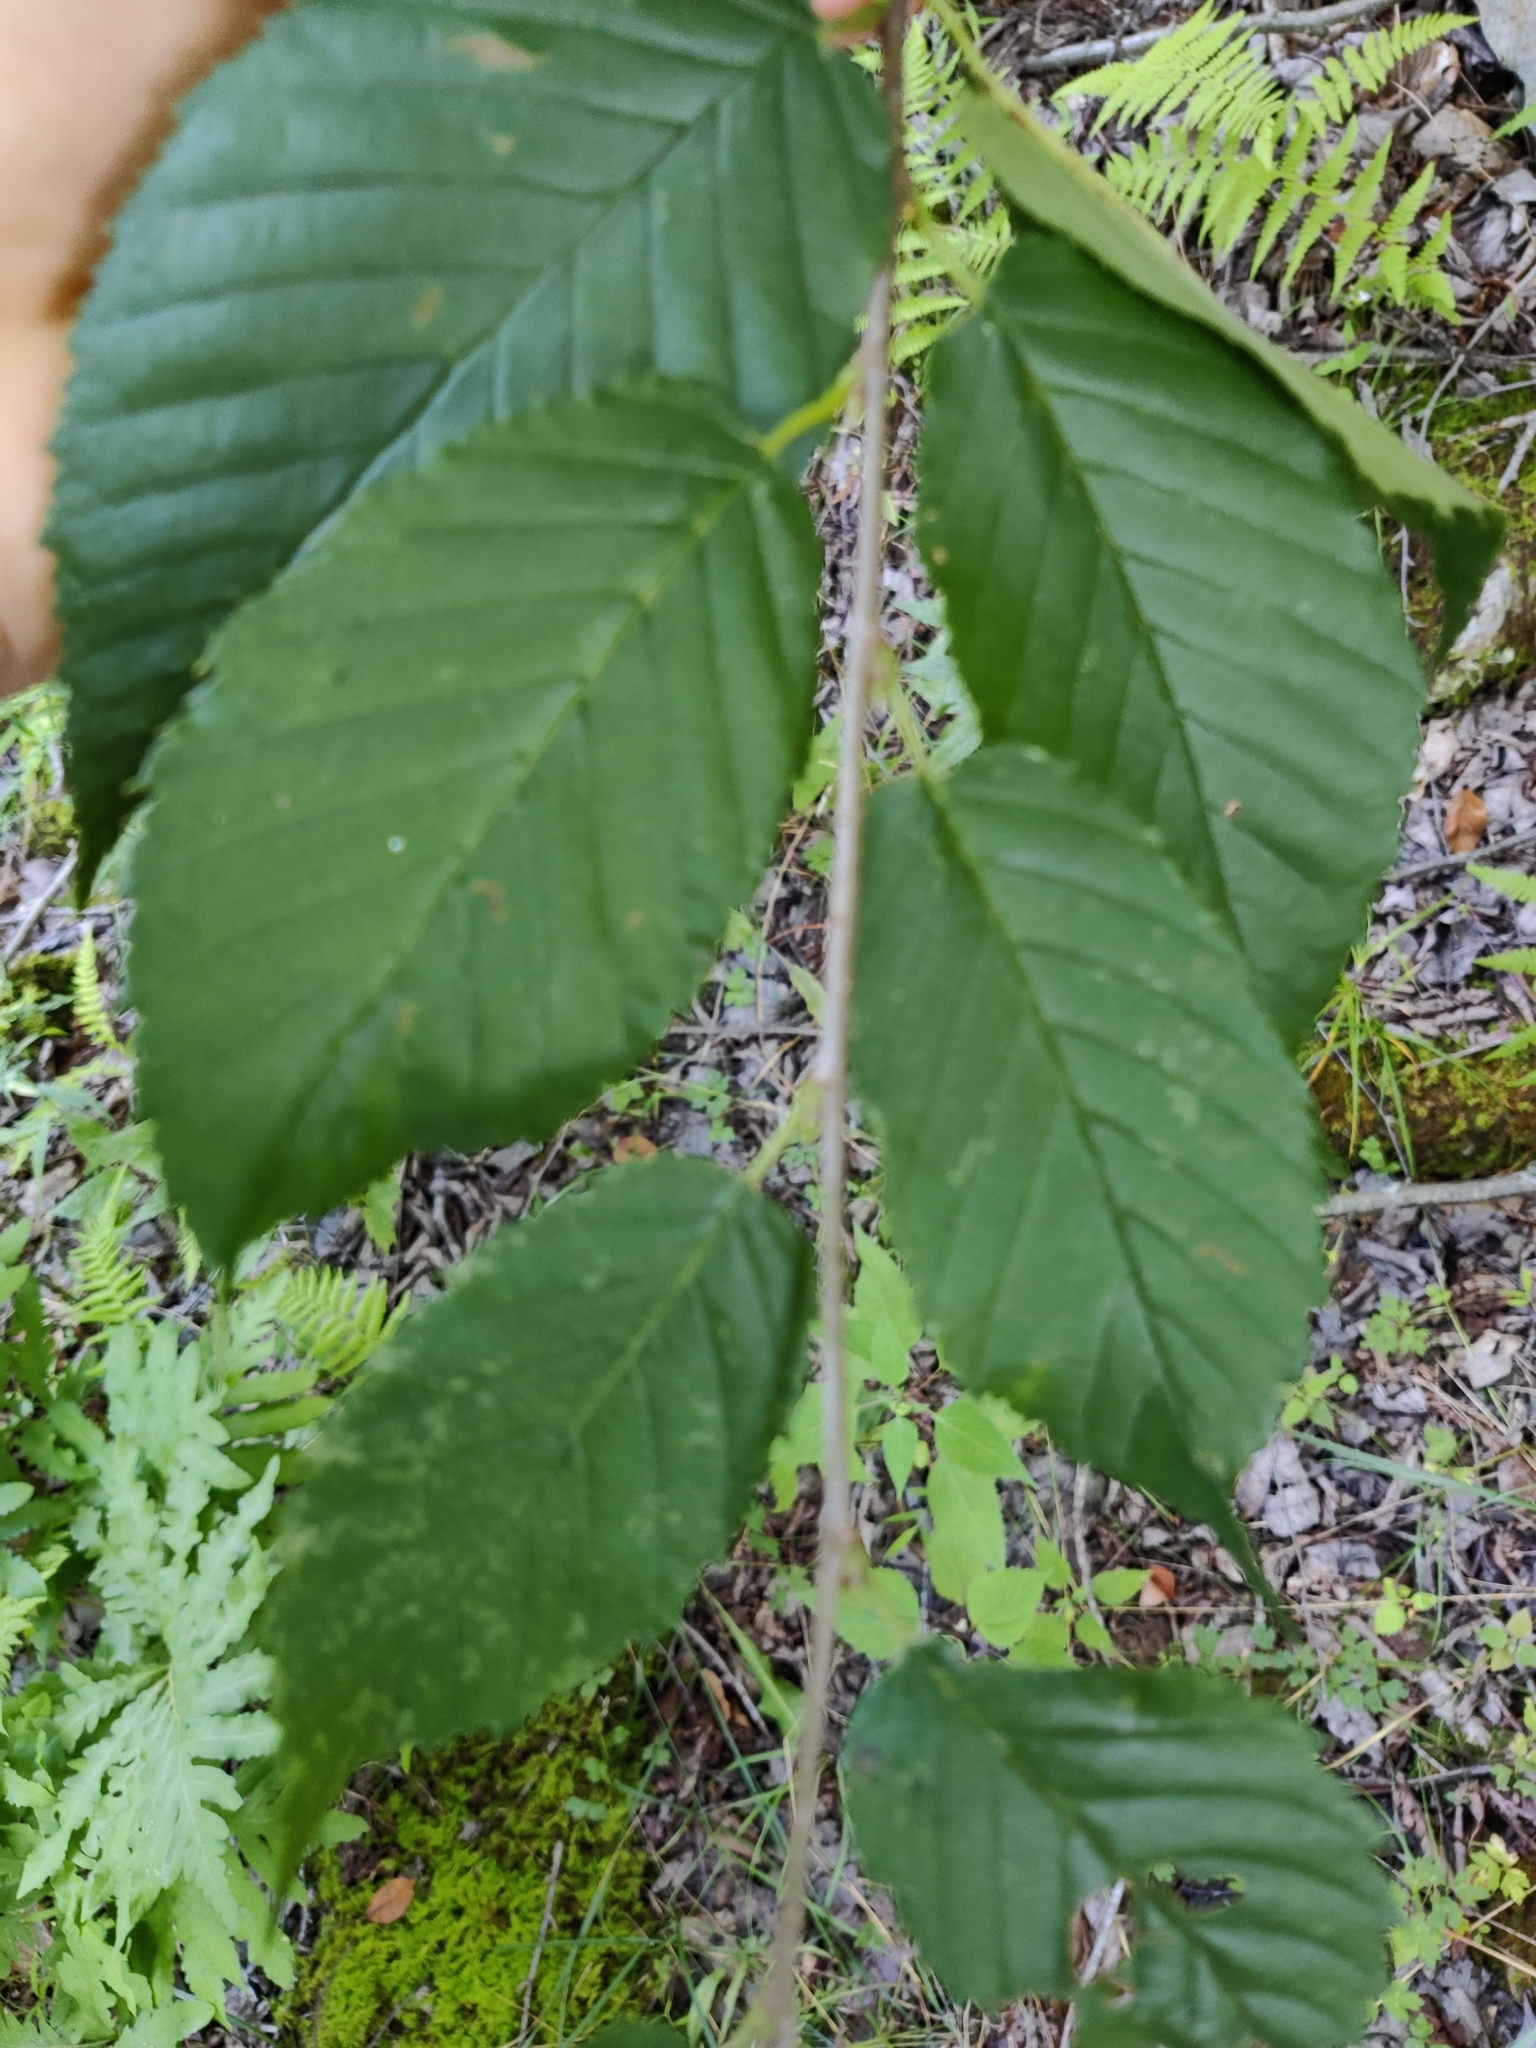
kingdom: Plantae
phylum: Tracheophyta
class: Magnoliopsida
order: Fagales
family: Betulaceae
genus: Betula
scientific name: Betula alleghaniensis
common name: Yellow birch
